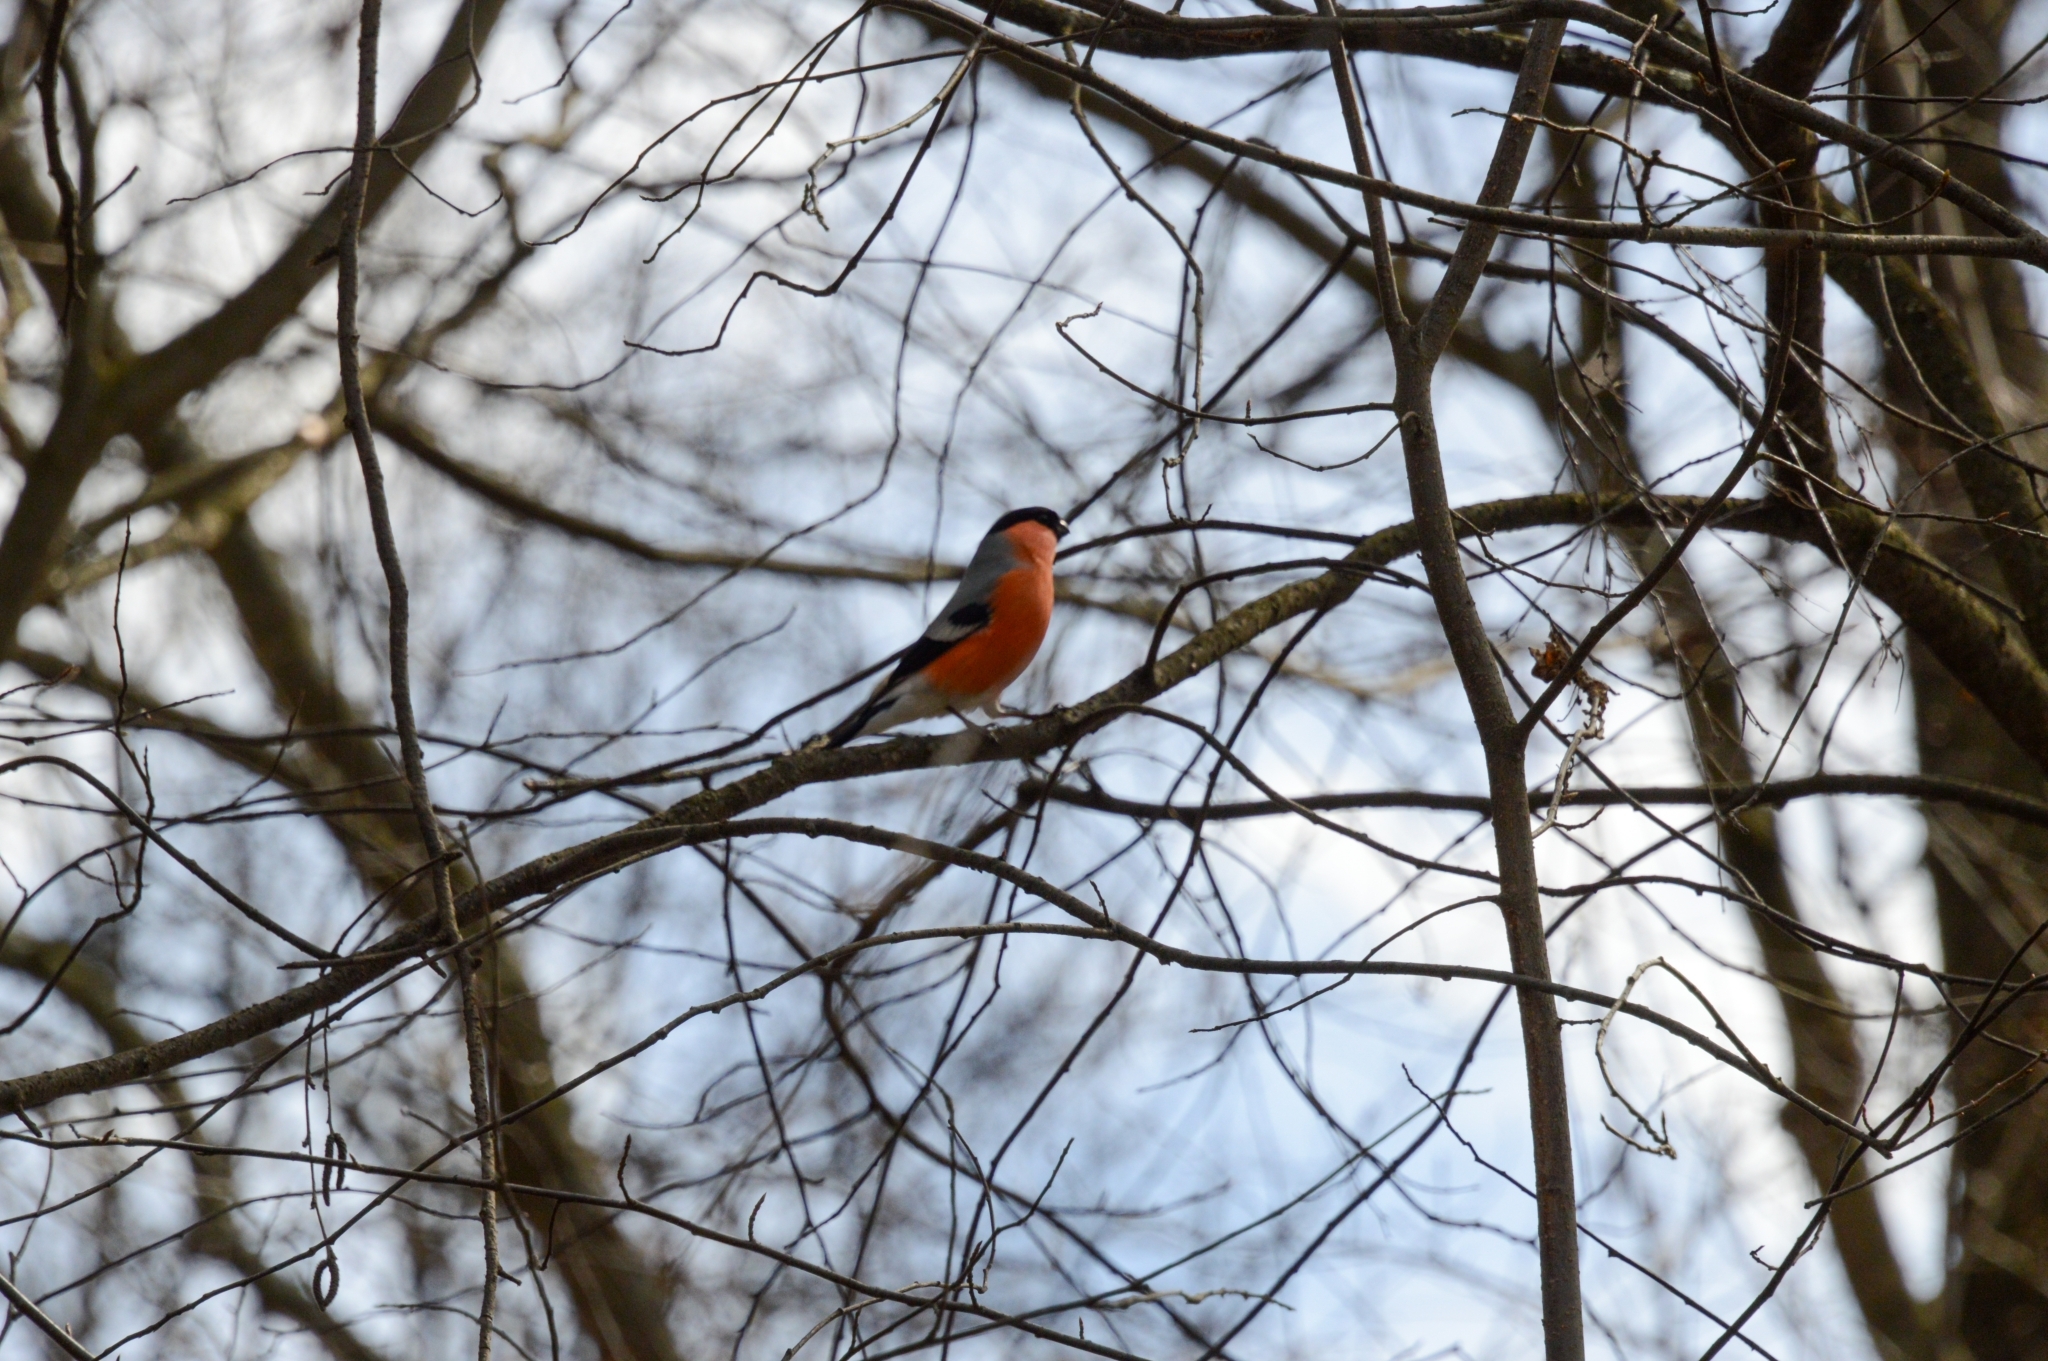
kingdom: Animalia
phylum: Chordata
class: Aves
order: Passeriformes
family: Fringillidae
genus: Pyrrhula
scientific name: Pyrrhula pyrrhula
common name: Eurasian bullfinch
